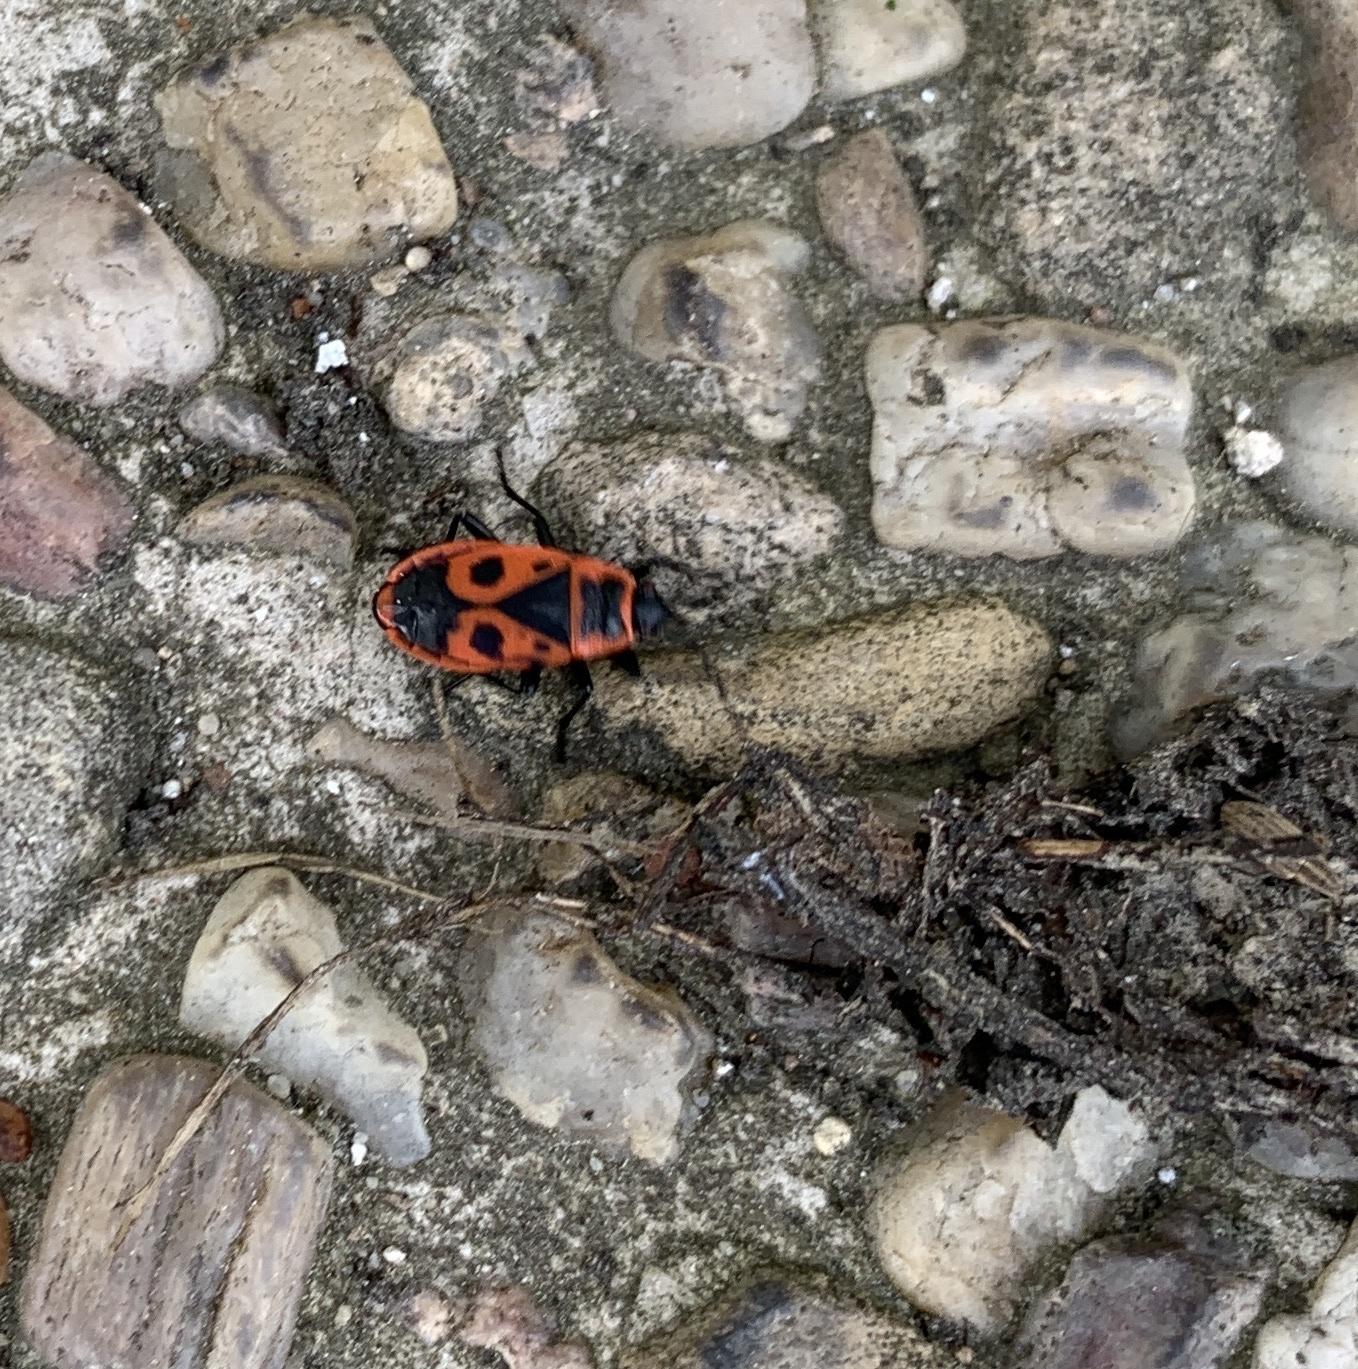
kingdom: Animalia
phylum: Arthropoda
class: Insecta
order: Hemiptera
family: Pyrrhocoridae
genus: Pyrrhocoris
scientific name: Pyrrhocoris apterus
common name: Firebug
